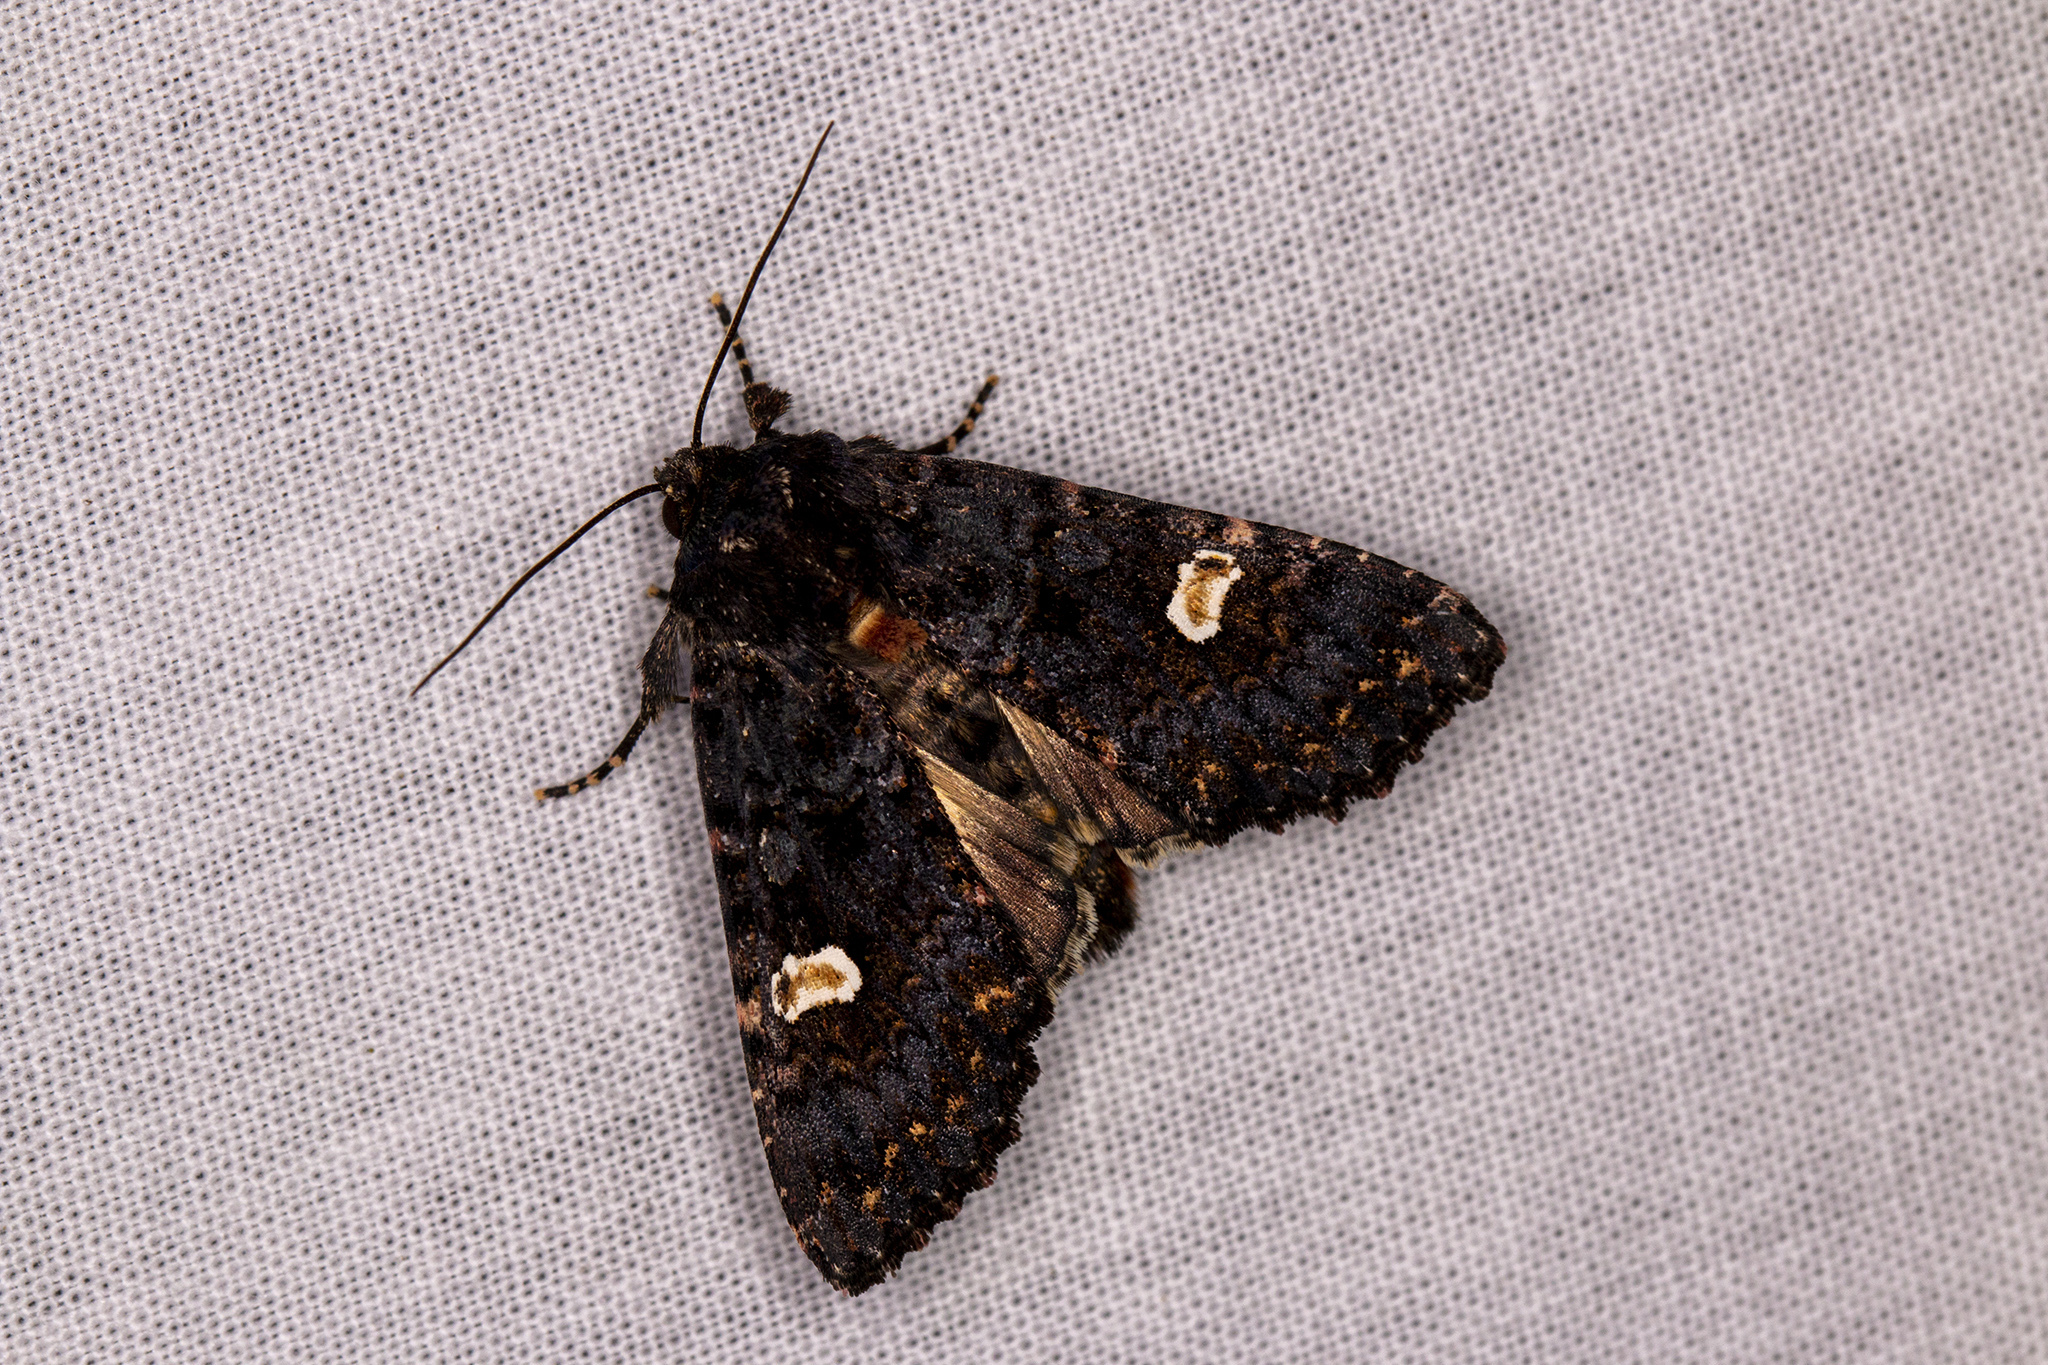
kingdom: Animalia
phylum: Arthropoda
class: Insecta
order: Lepidoptera
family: Noctuidae
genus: Melanchra
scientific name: Melanchra persicariae
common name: Dot moth
